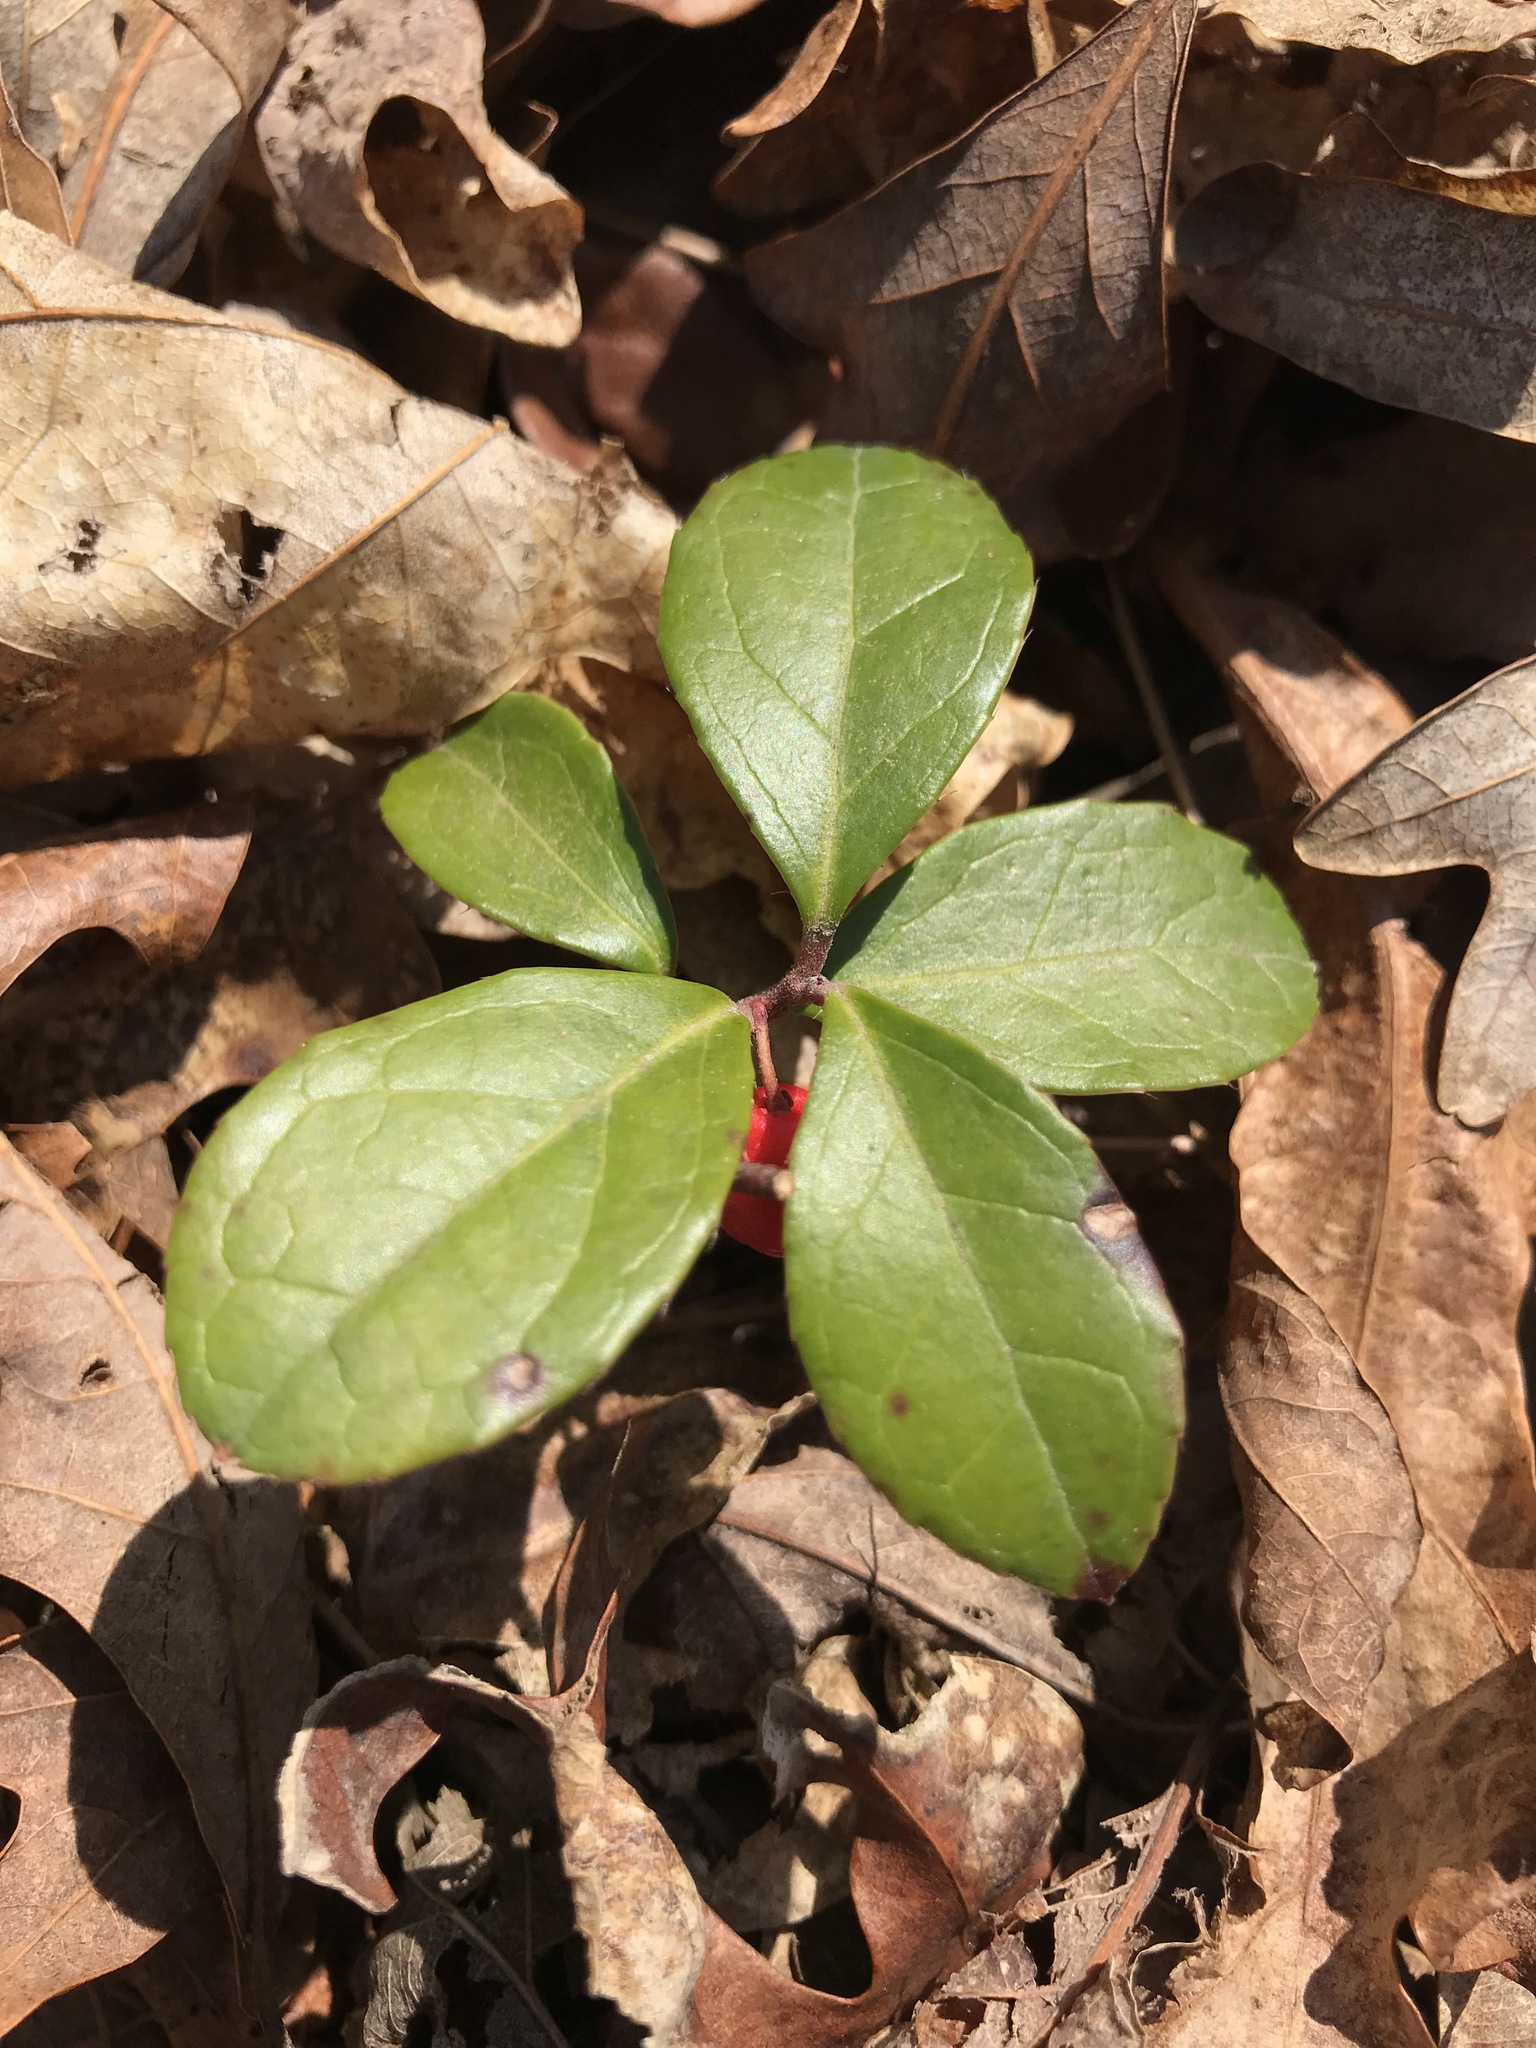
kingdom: Plantae
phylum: Tracheophyta
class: Magnoliopsida
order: Ericales
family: Ericaceae
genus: Gaultheria
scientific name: Gaultheria procumbens
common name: Checkerberry
